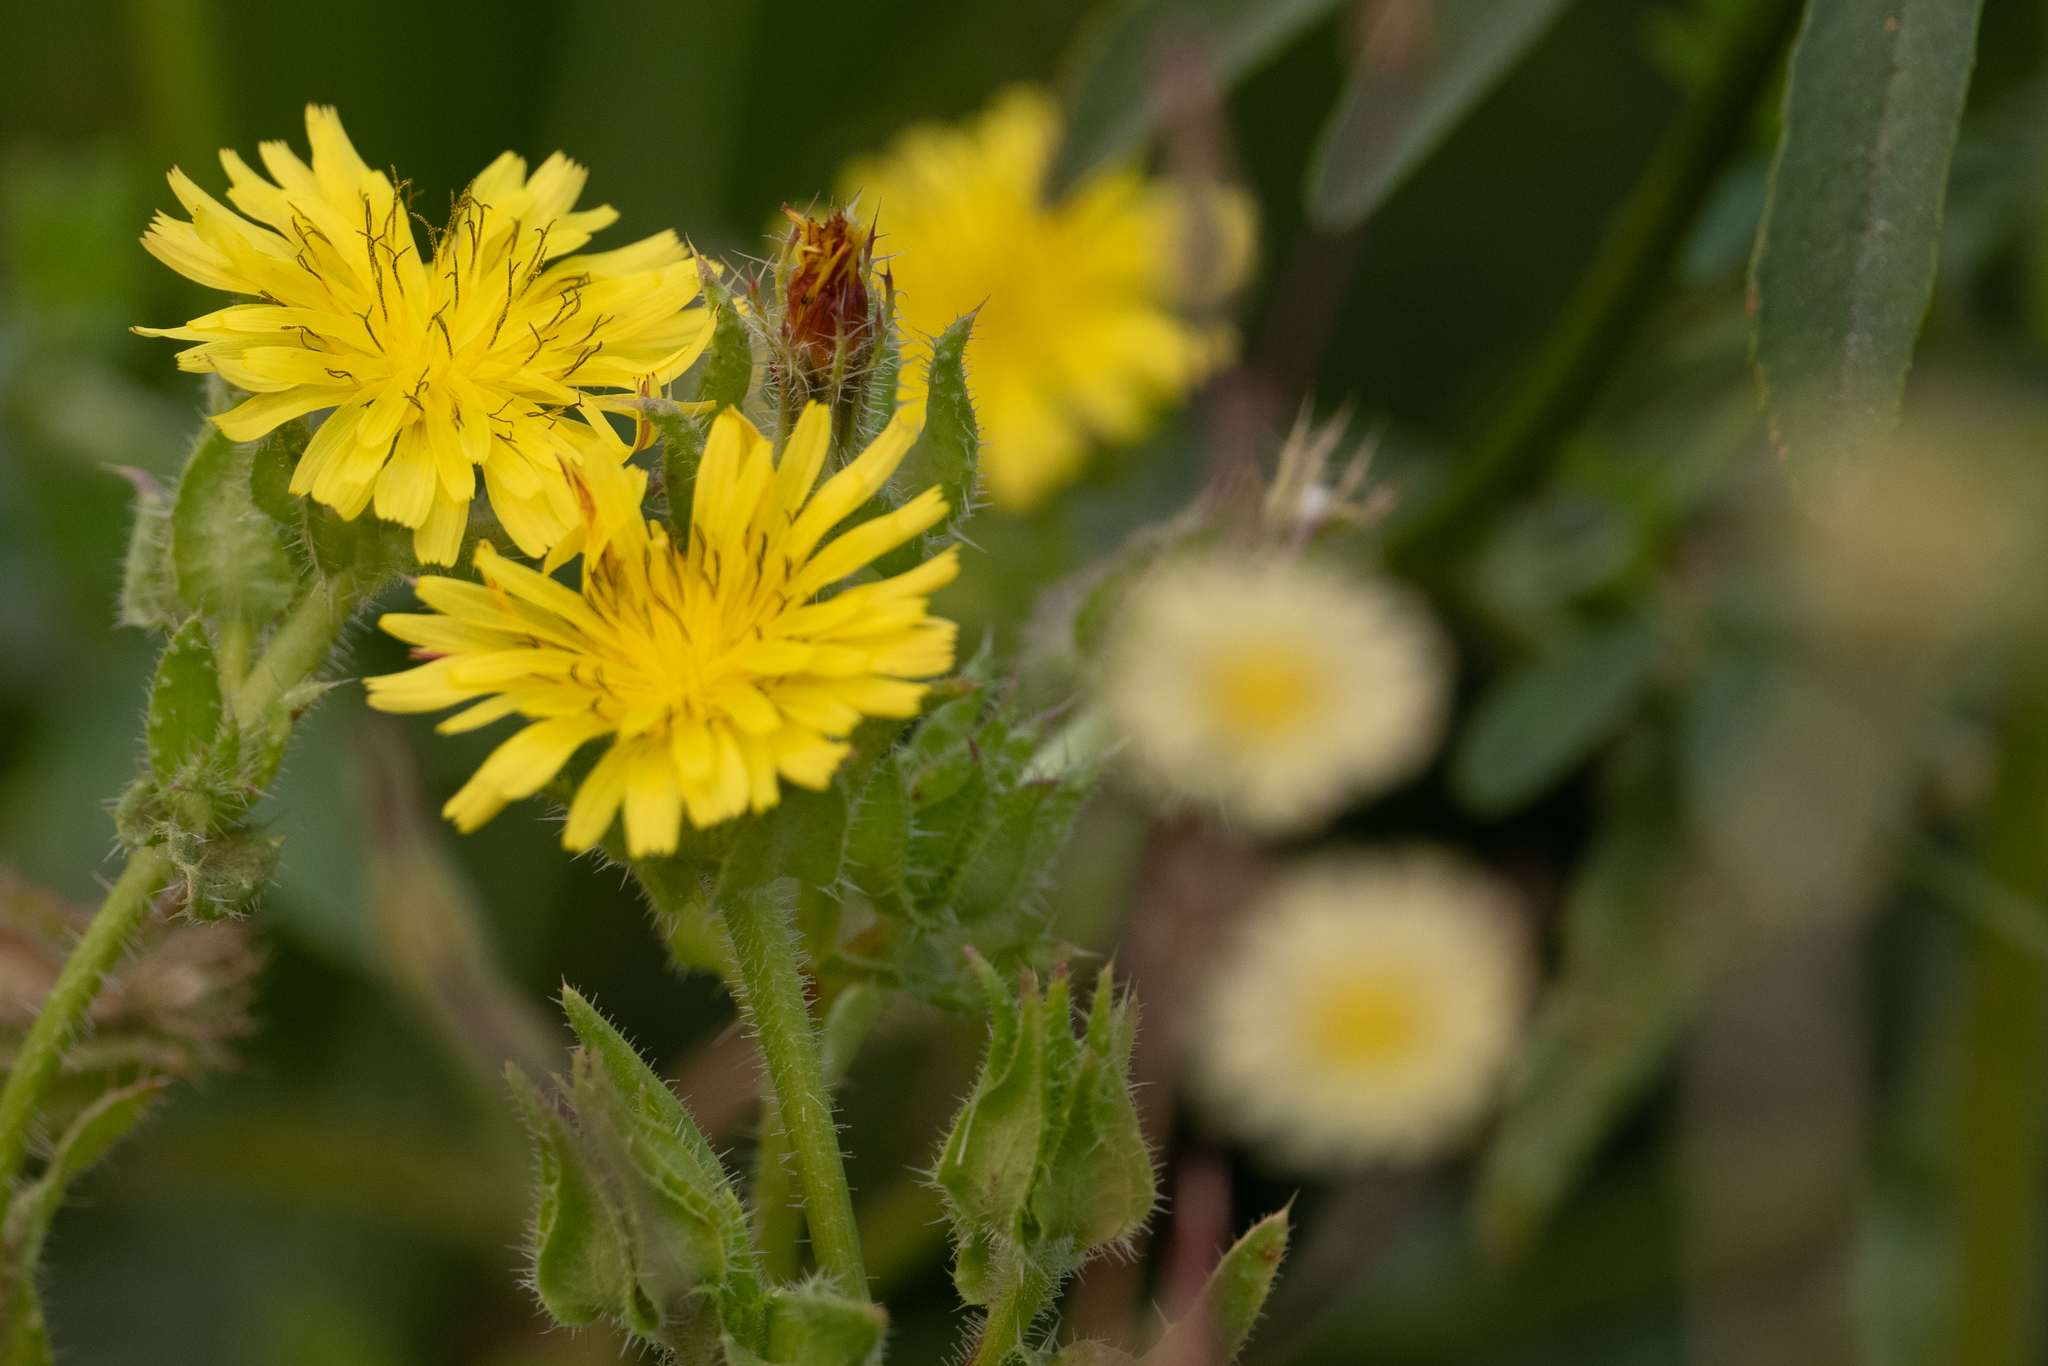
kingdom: Plantae
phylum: Tracheophyta
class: Magnoliopsida
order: Asterales
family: Asteraceae
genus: Helminthotheca
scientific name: Helminthotheca echioides
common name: Ox-tongue
